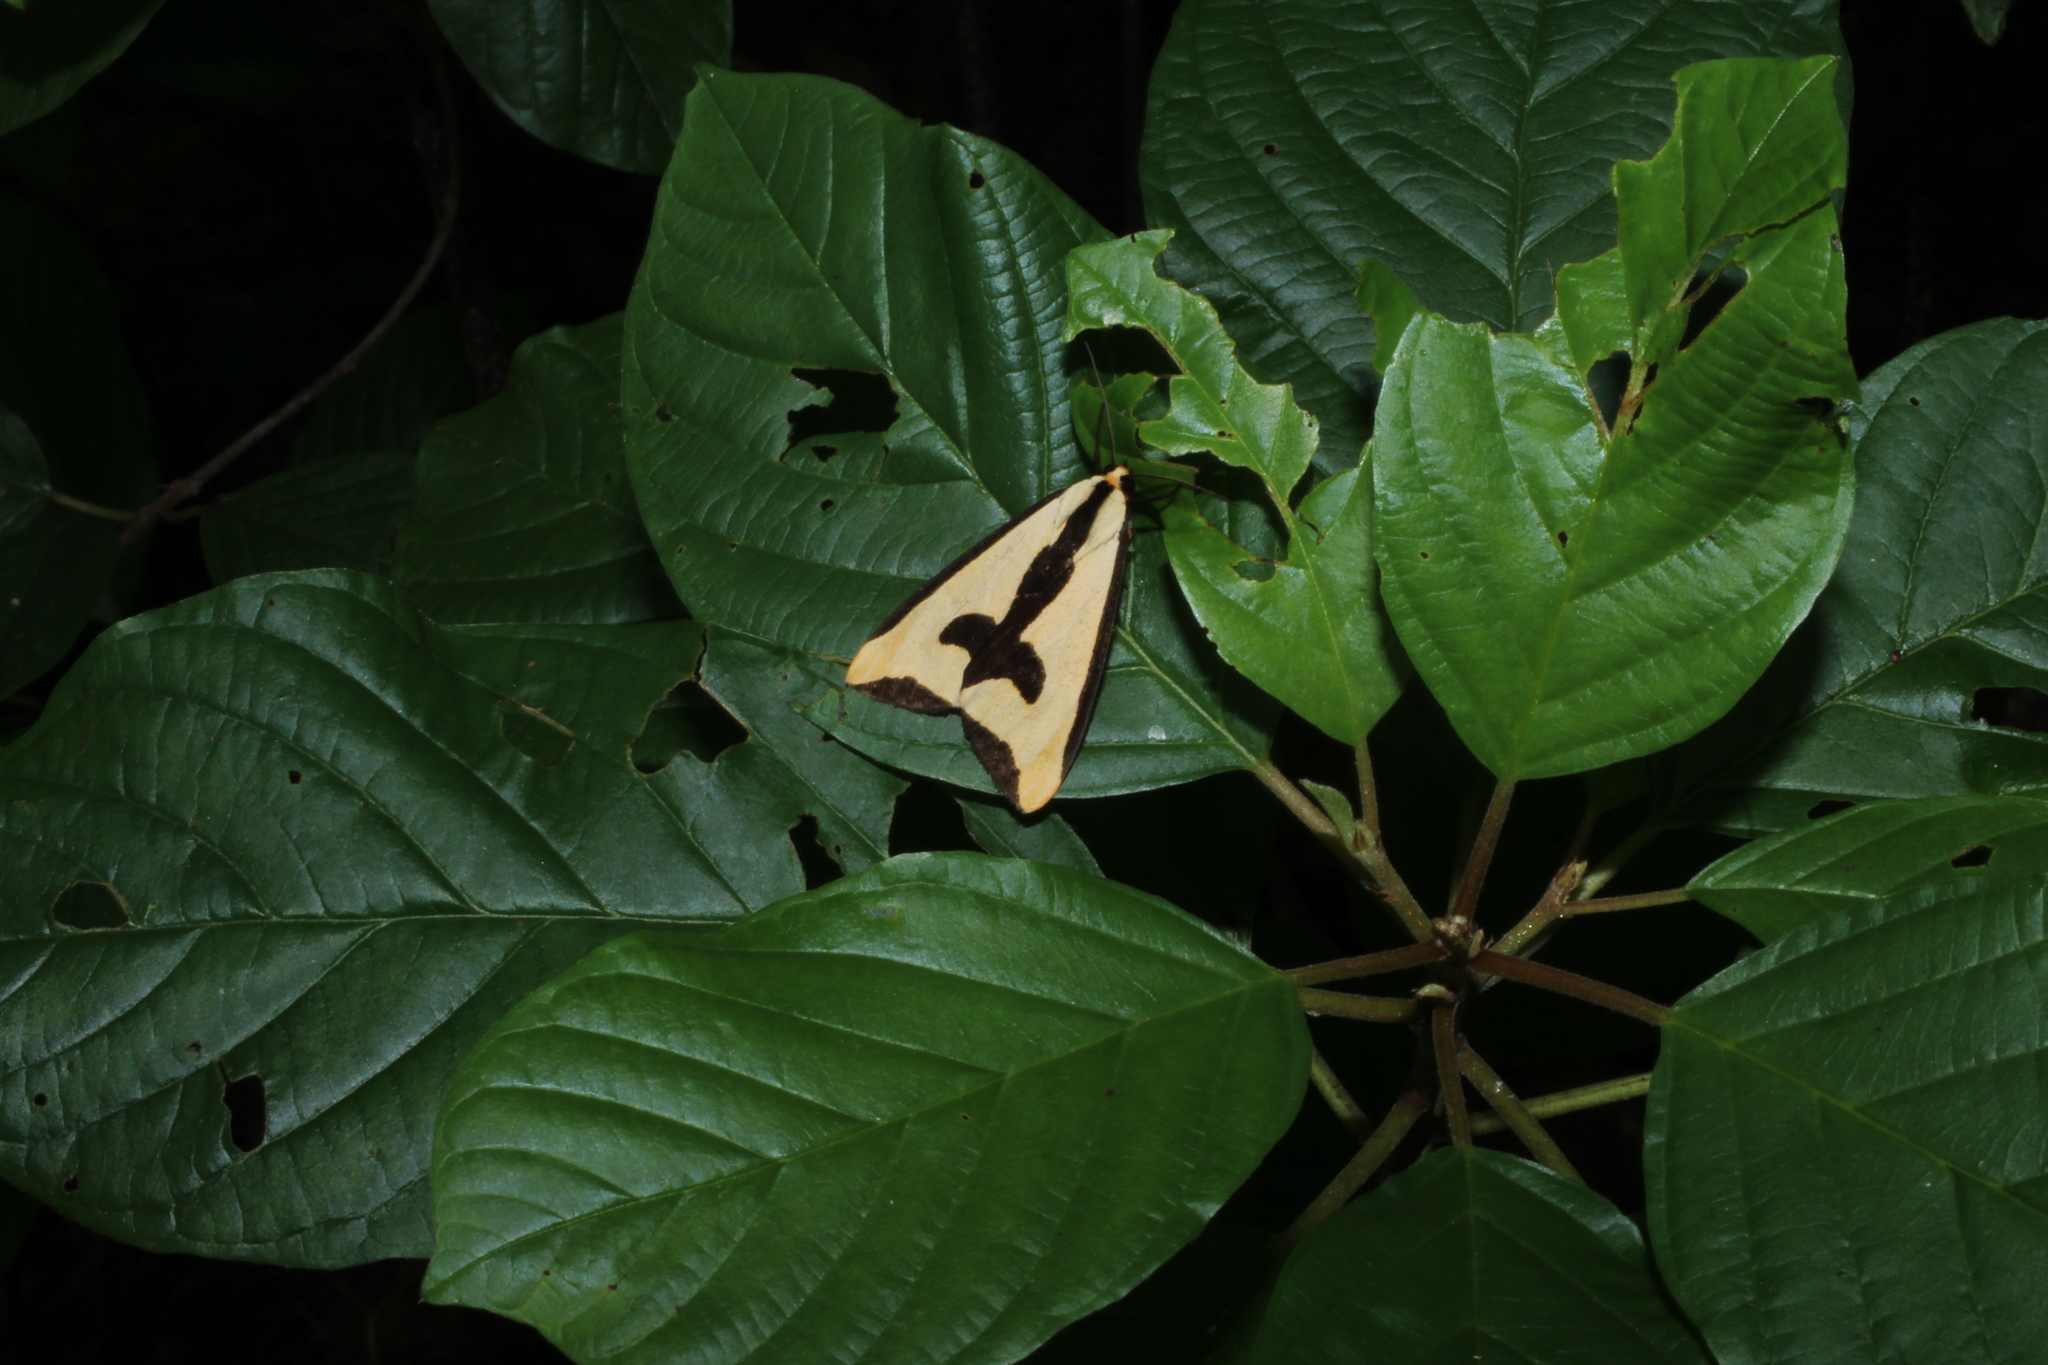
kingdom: Animalia
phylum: Arthropoda
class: Insecta
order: Lepidoptera
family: Erebidae
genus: Haploa
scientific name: Haploa clymene
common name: Clymene moth
